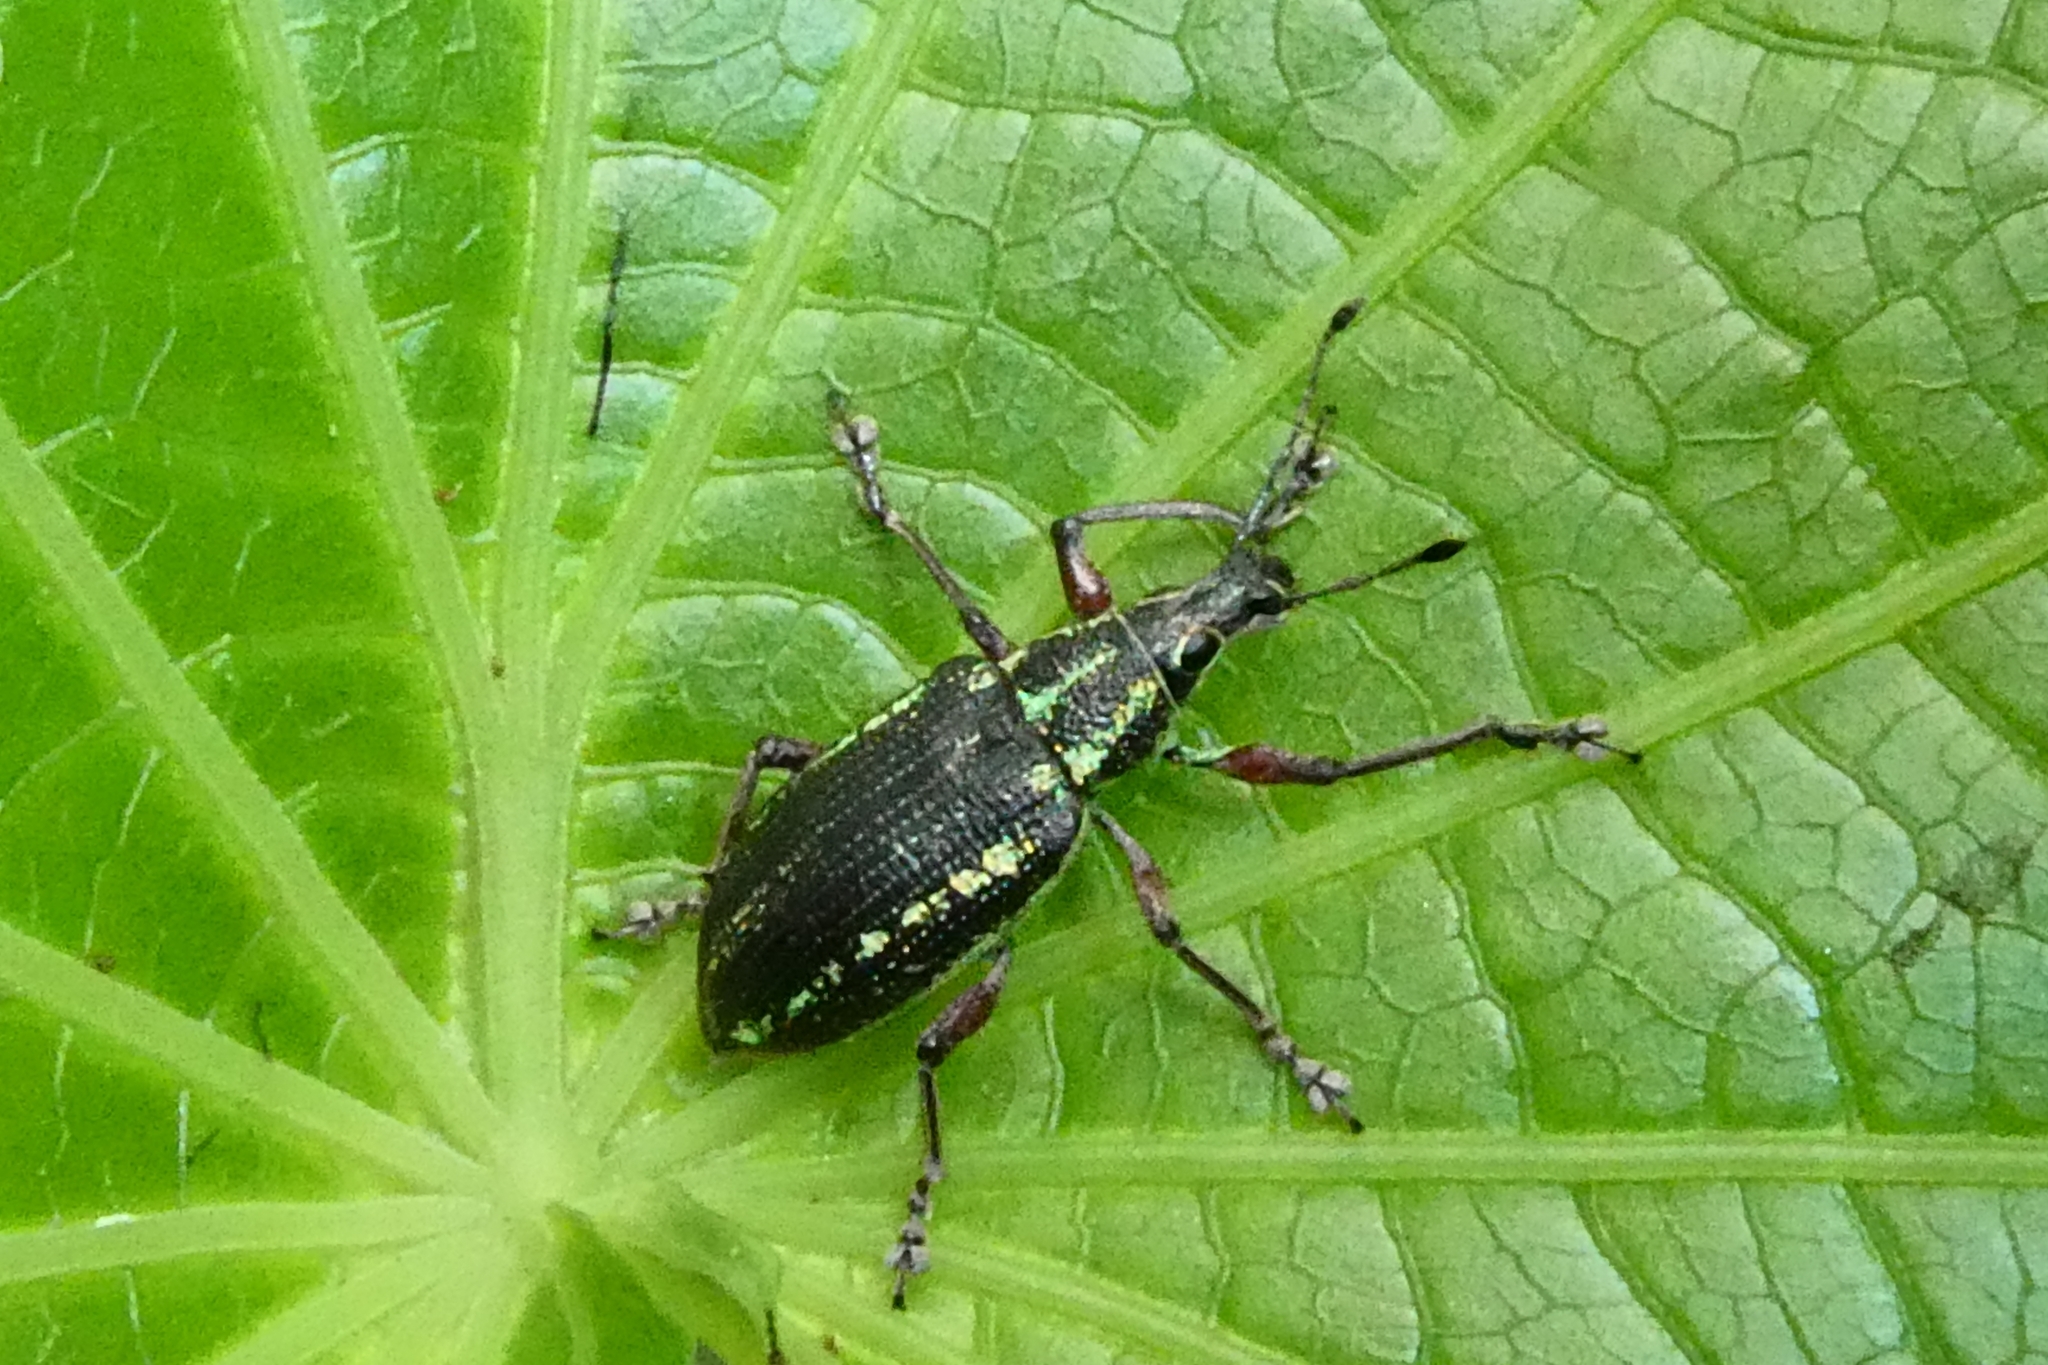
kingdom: Animalia
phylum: Arthropoda
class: Insecta
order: Coleoptera
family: Curculionidae
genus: Exophthalmus
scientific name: Exophthalmus sulcicrus
